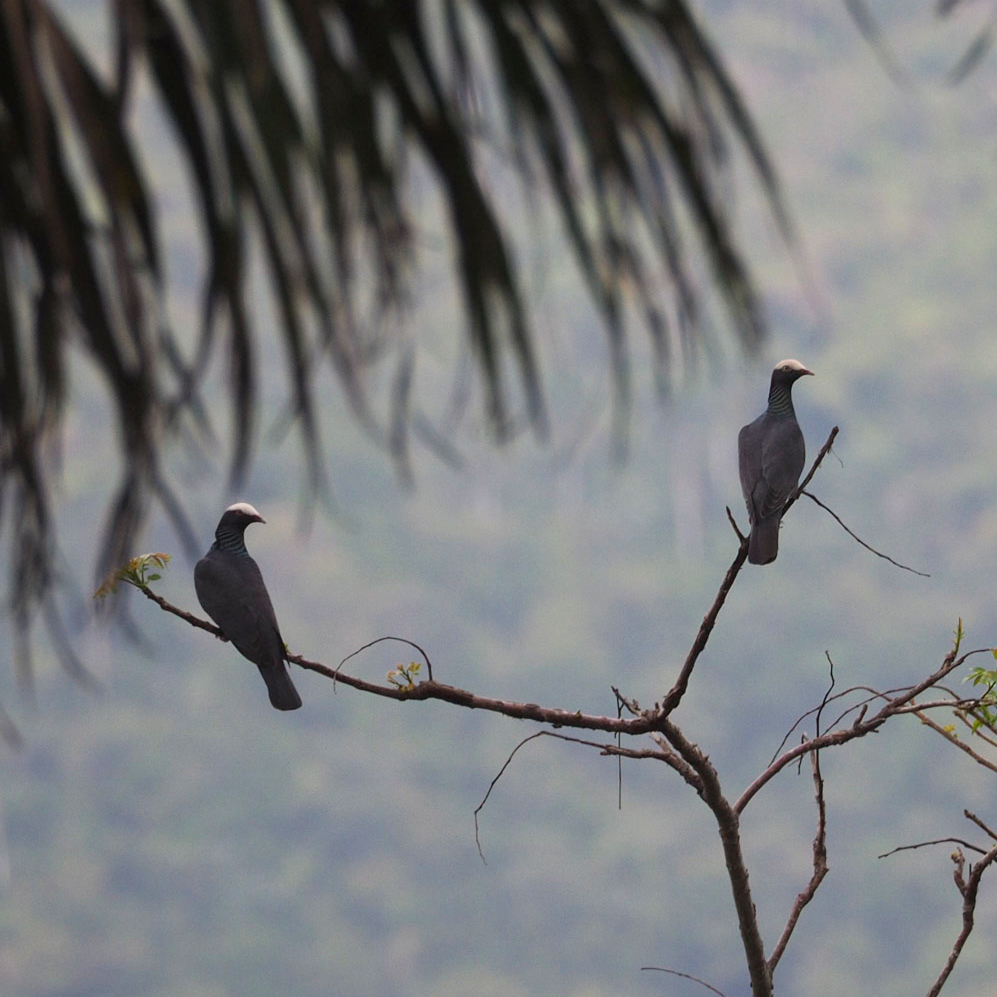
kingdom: Animalia
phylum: Chordata
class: Aves
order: Columbiformes
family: Columbidae
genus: Patagioenas
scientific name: Patagioenas leucocephala
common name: White-crowned pigeon
